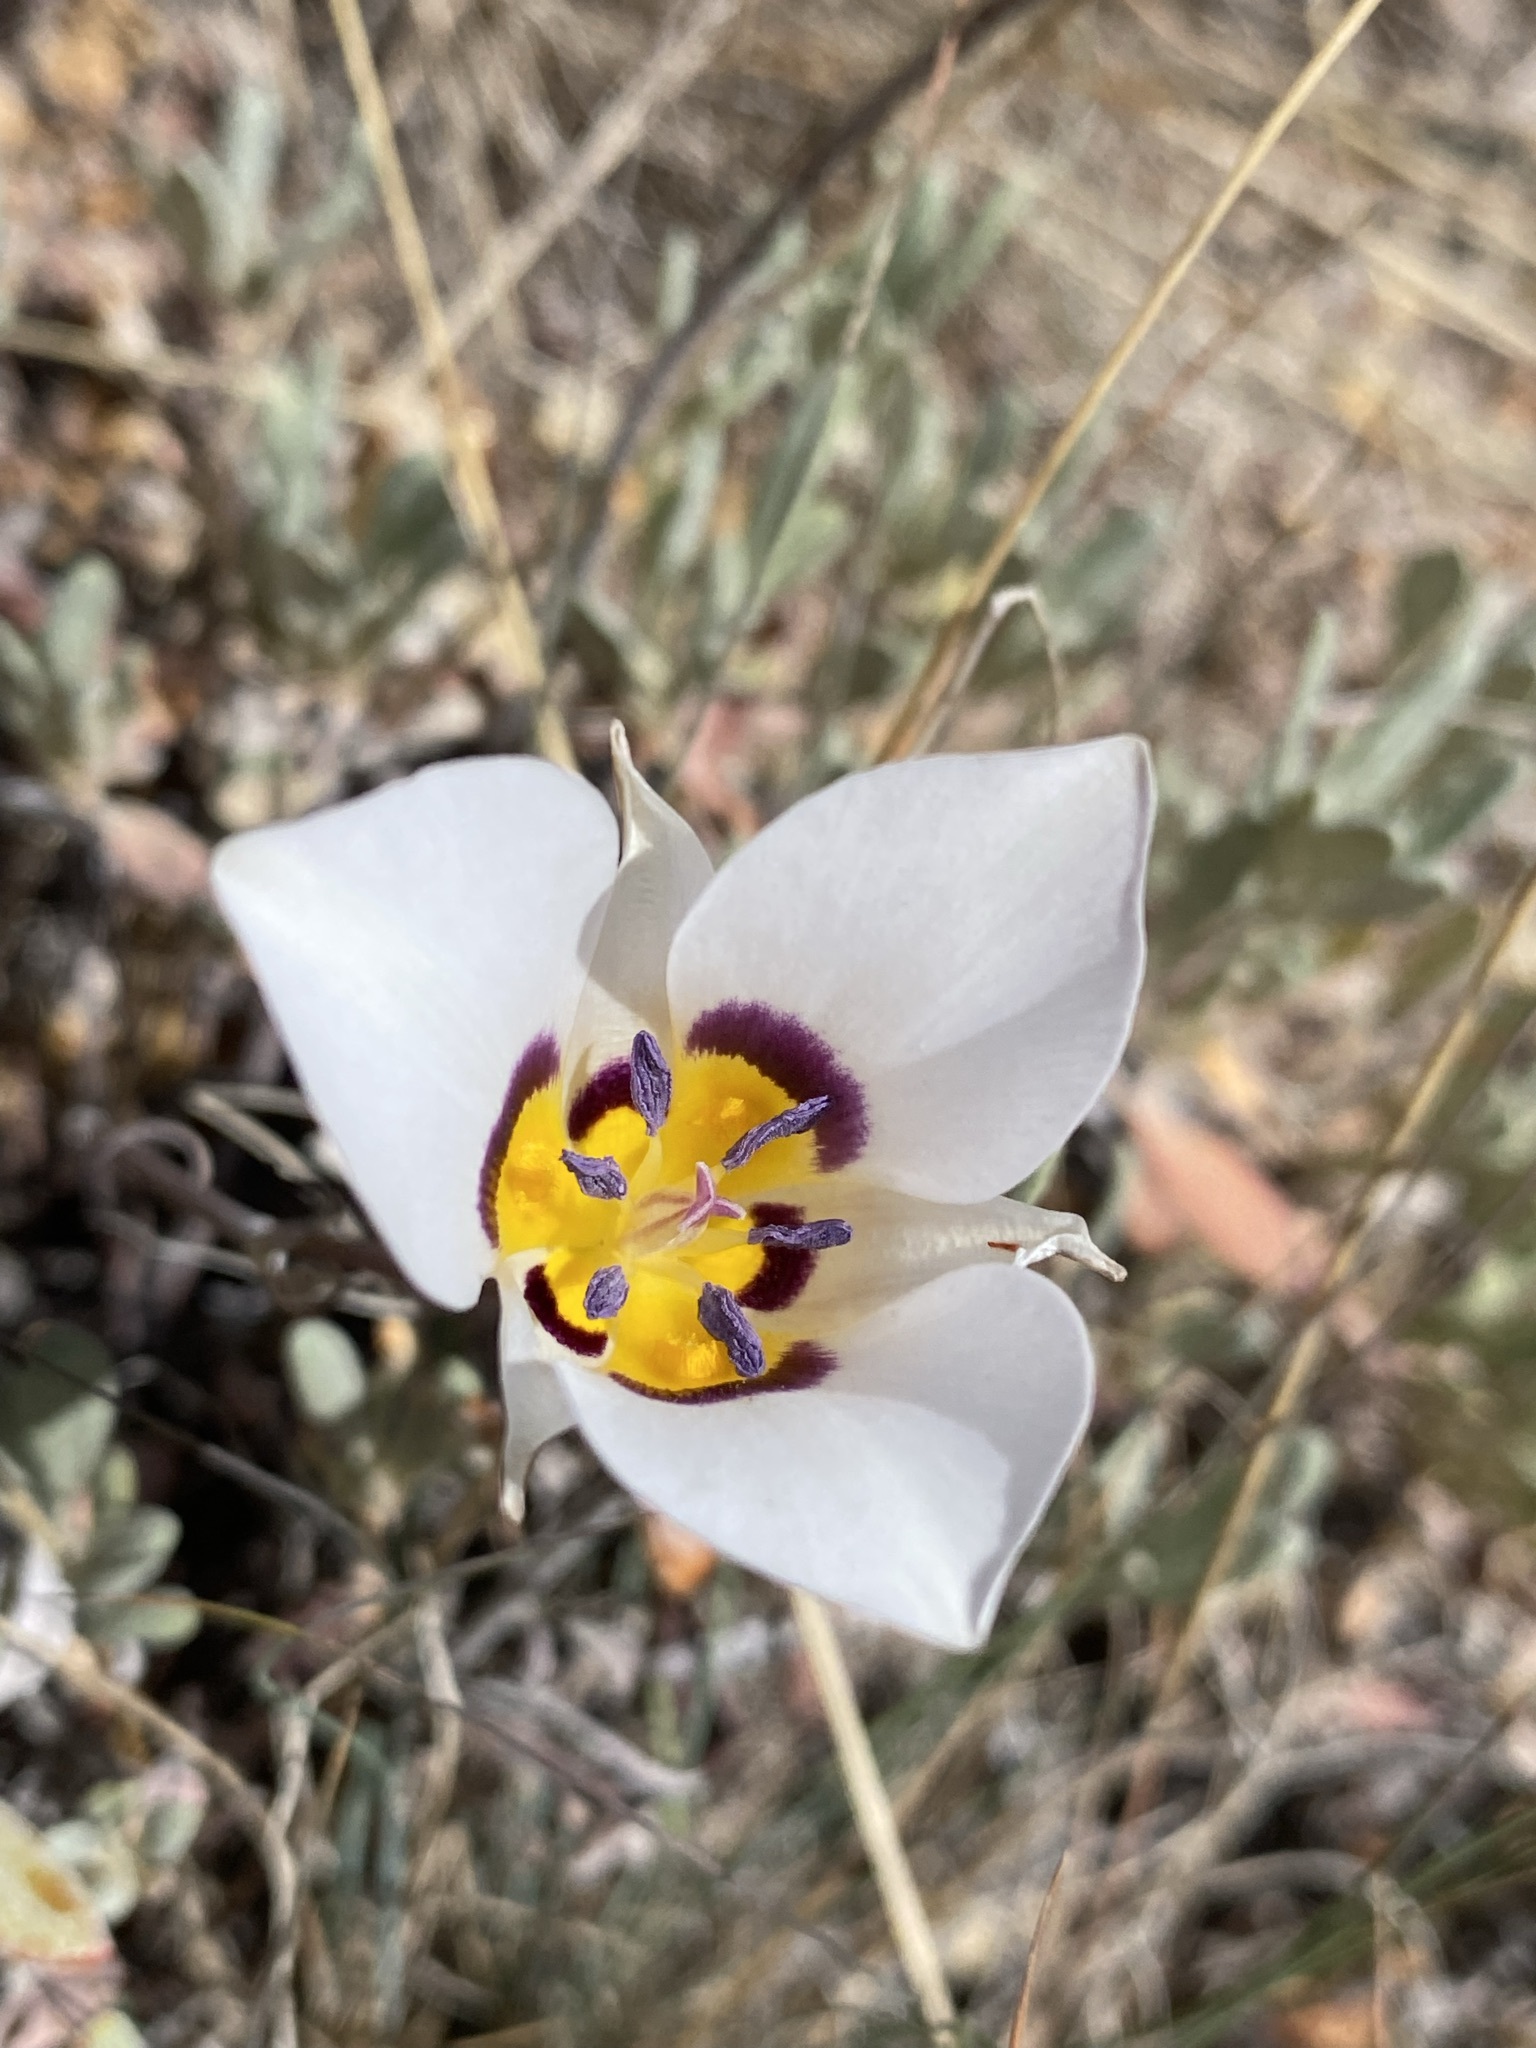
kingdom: Plantae
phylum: Tracheophyta
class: Liliopsida
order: Liliales
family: Liliaceae
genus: Calochortus
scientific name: Calochortus bruneaunis
